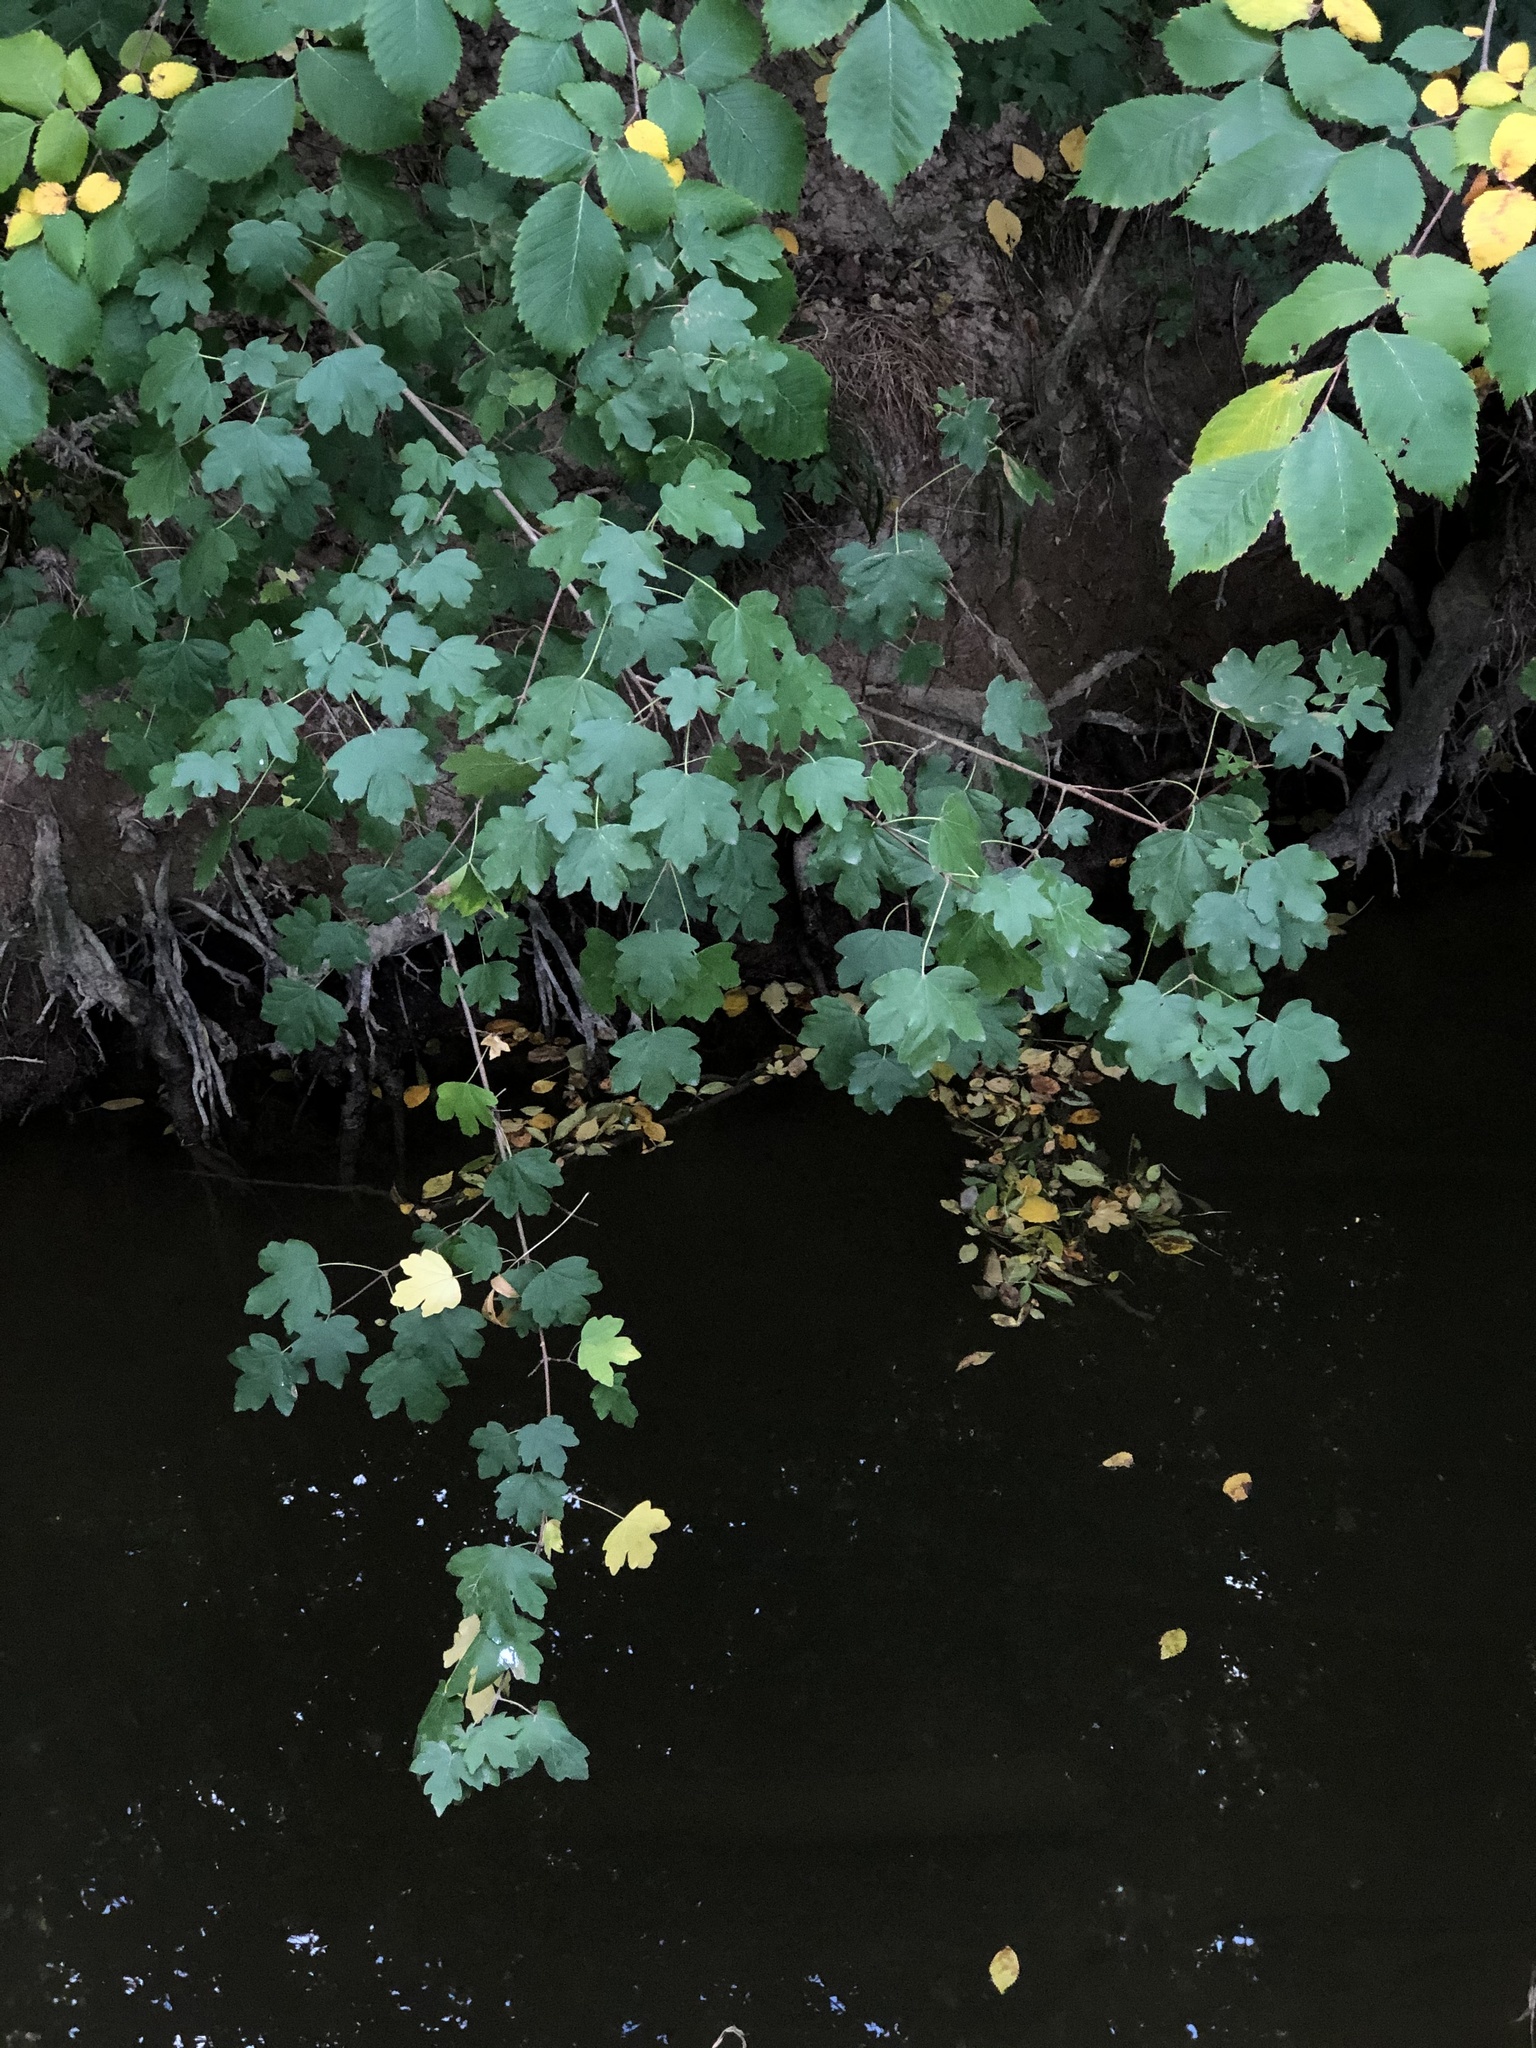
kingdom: Plantae
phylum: Tracheophyta
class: Magnoliopsida
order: Sapindales
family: Sapindaceae
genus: Acer
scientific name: Acer campestre
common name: Field maple
